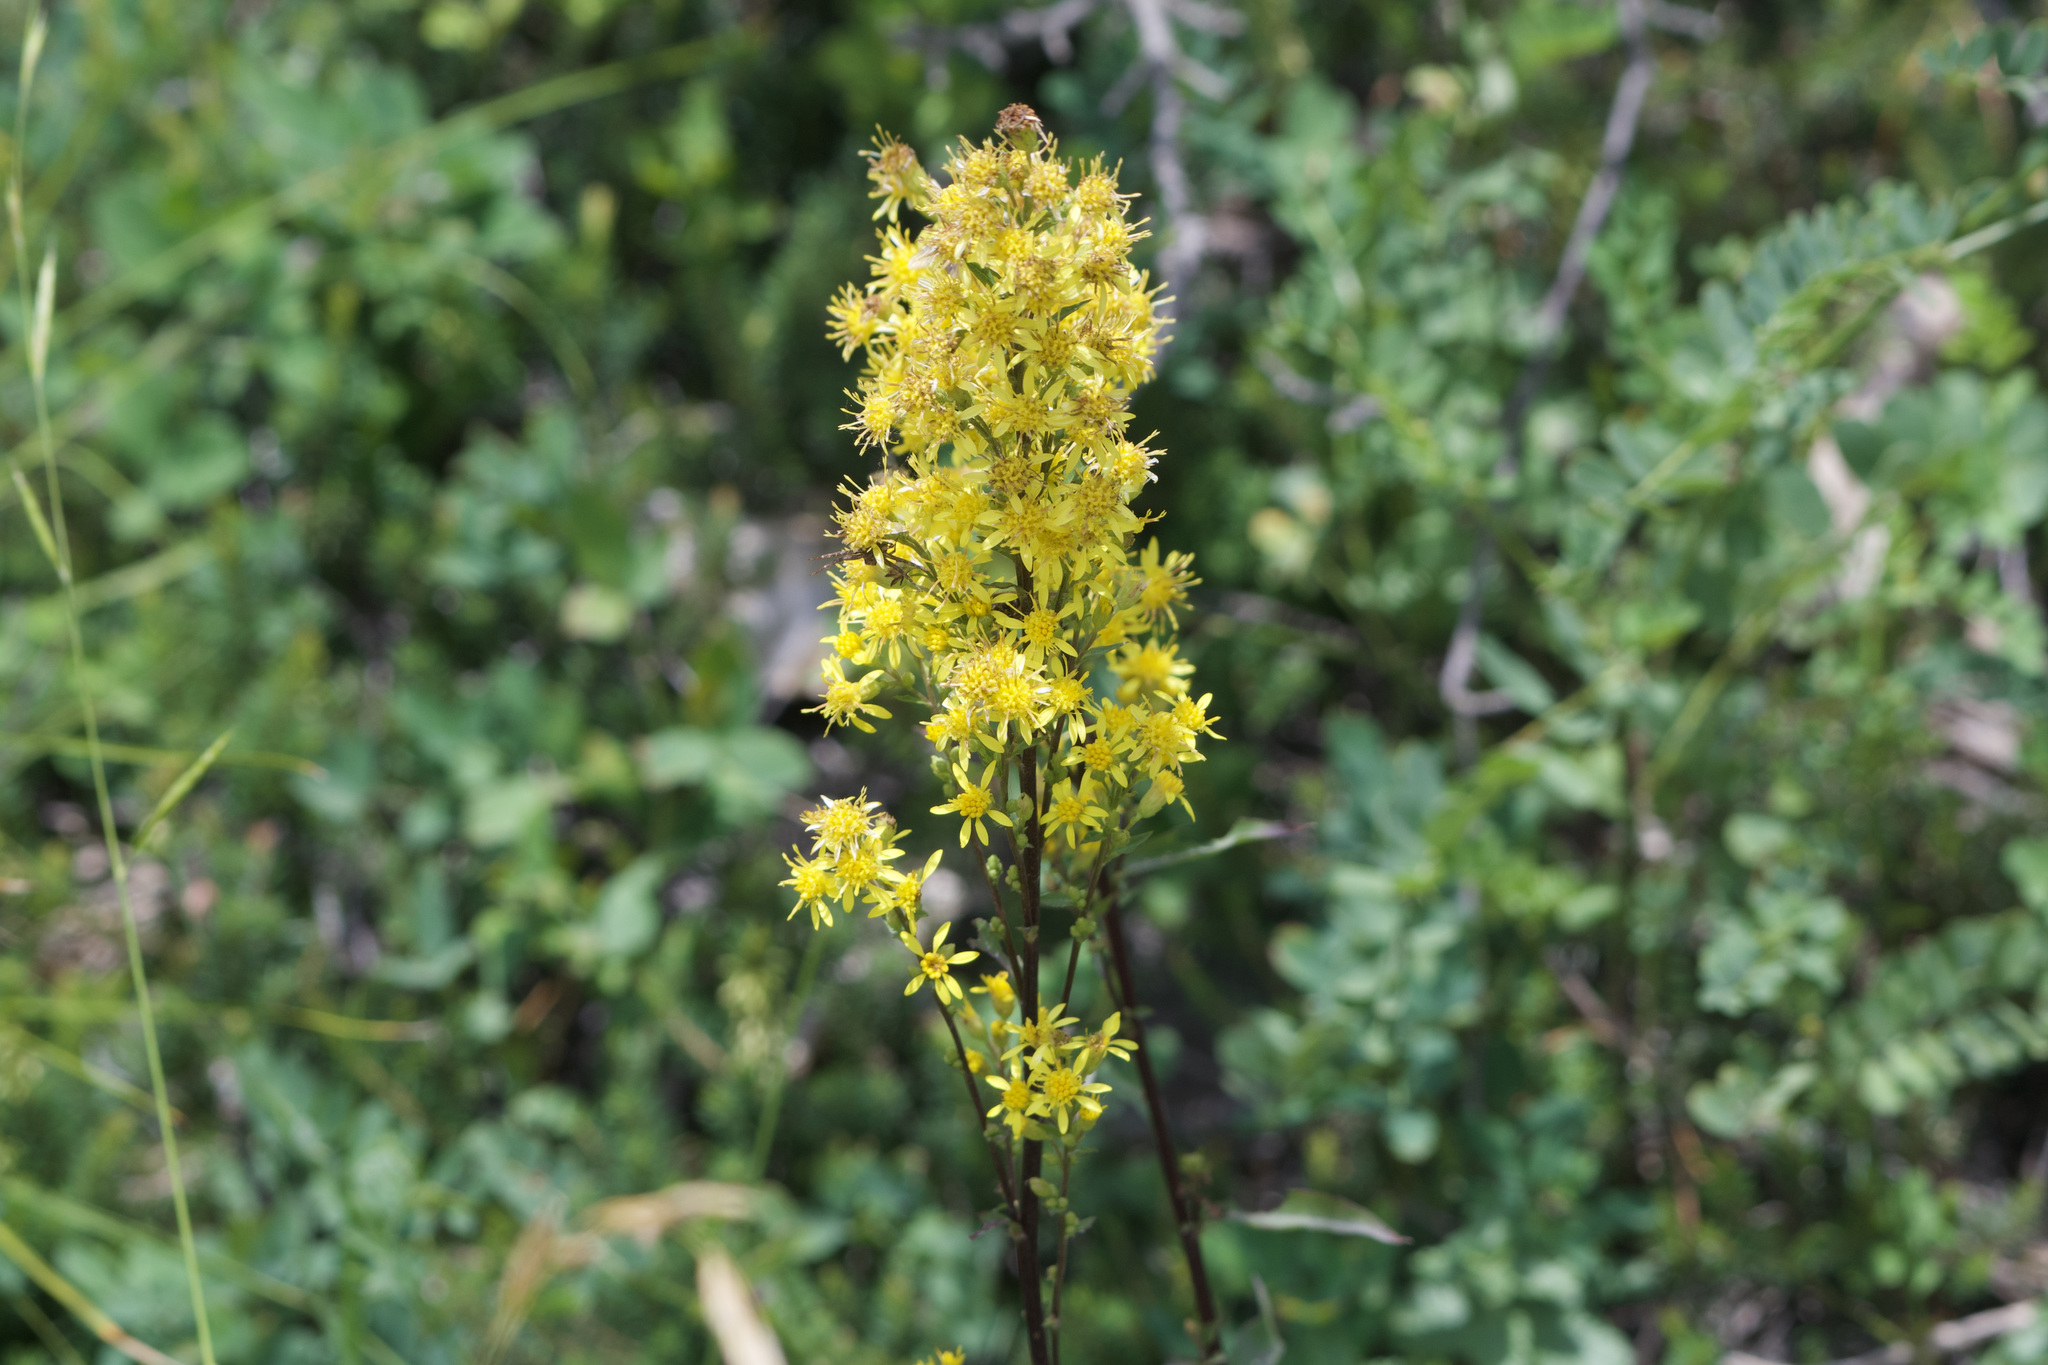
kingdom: Plantae
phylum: Tracheophyta
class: Magnoliopsida
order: Asterales
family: Asteraceae
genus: Solidago
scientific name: Solidago virgaurea
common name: Goldenrod
